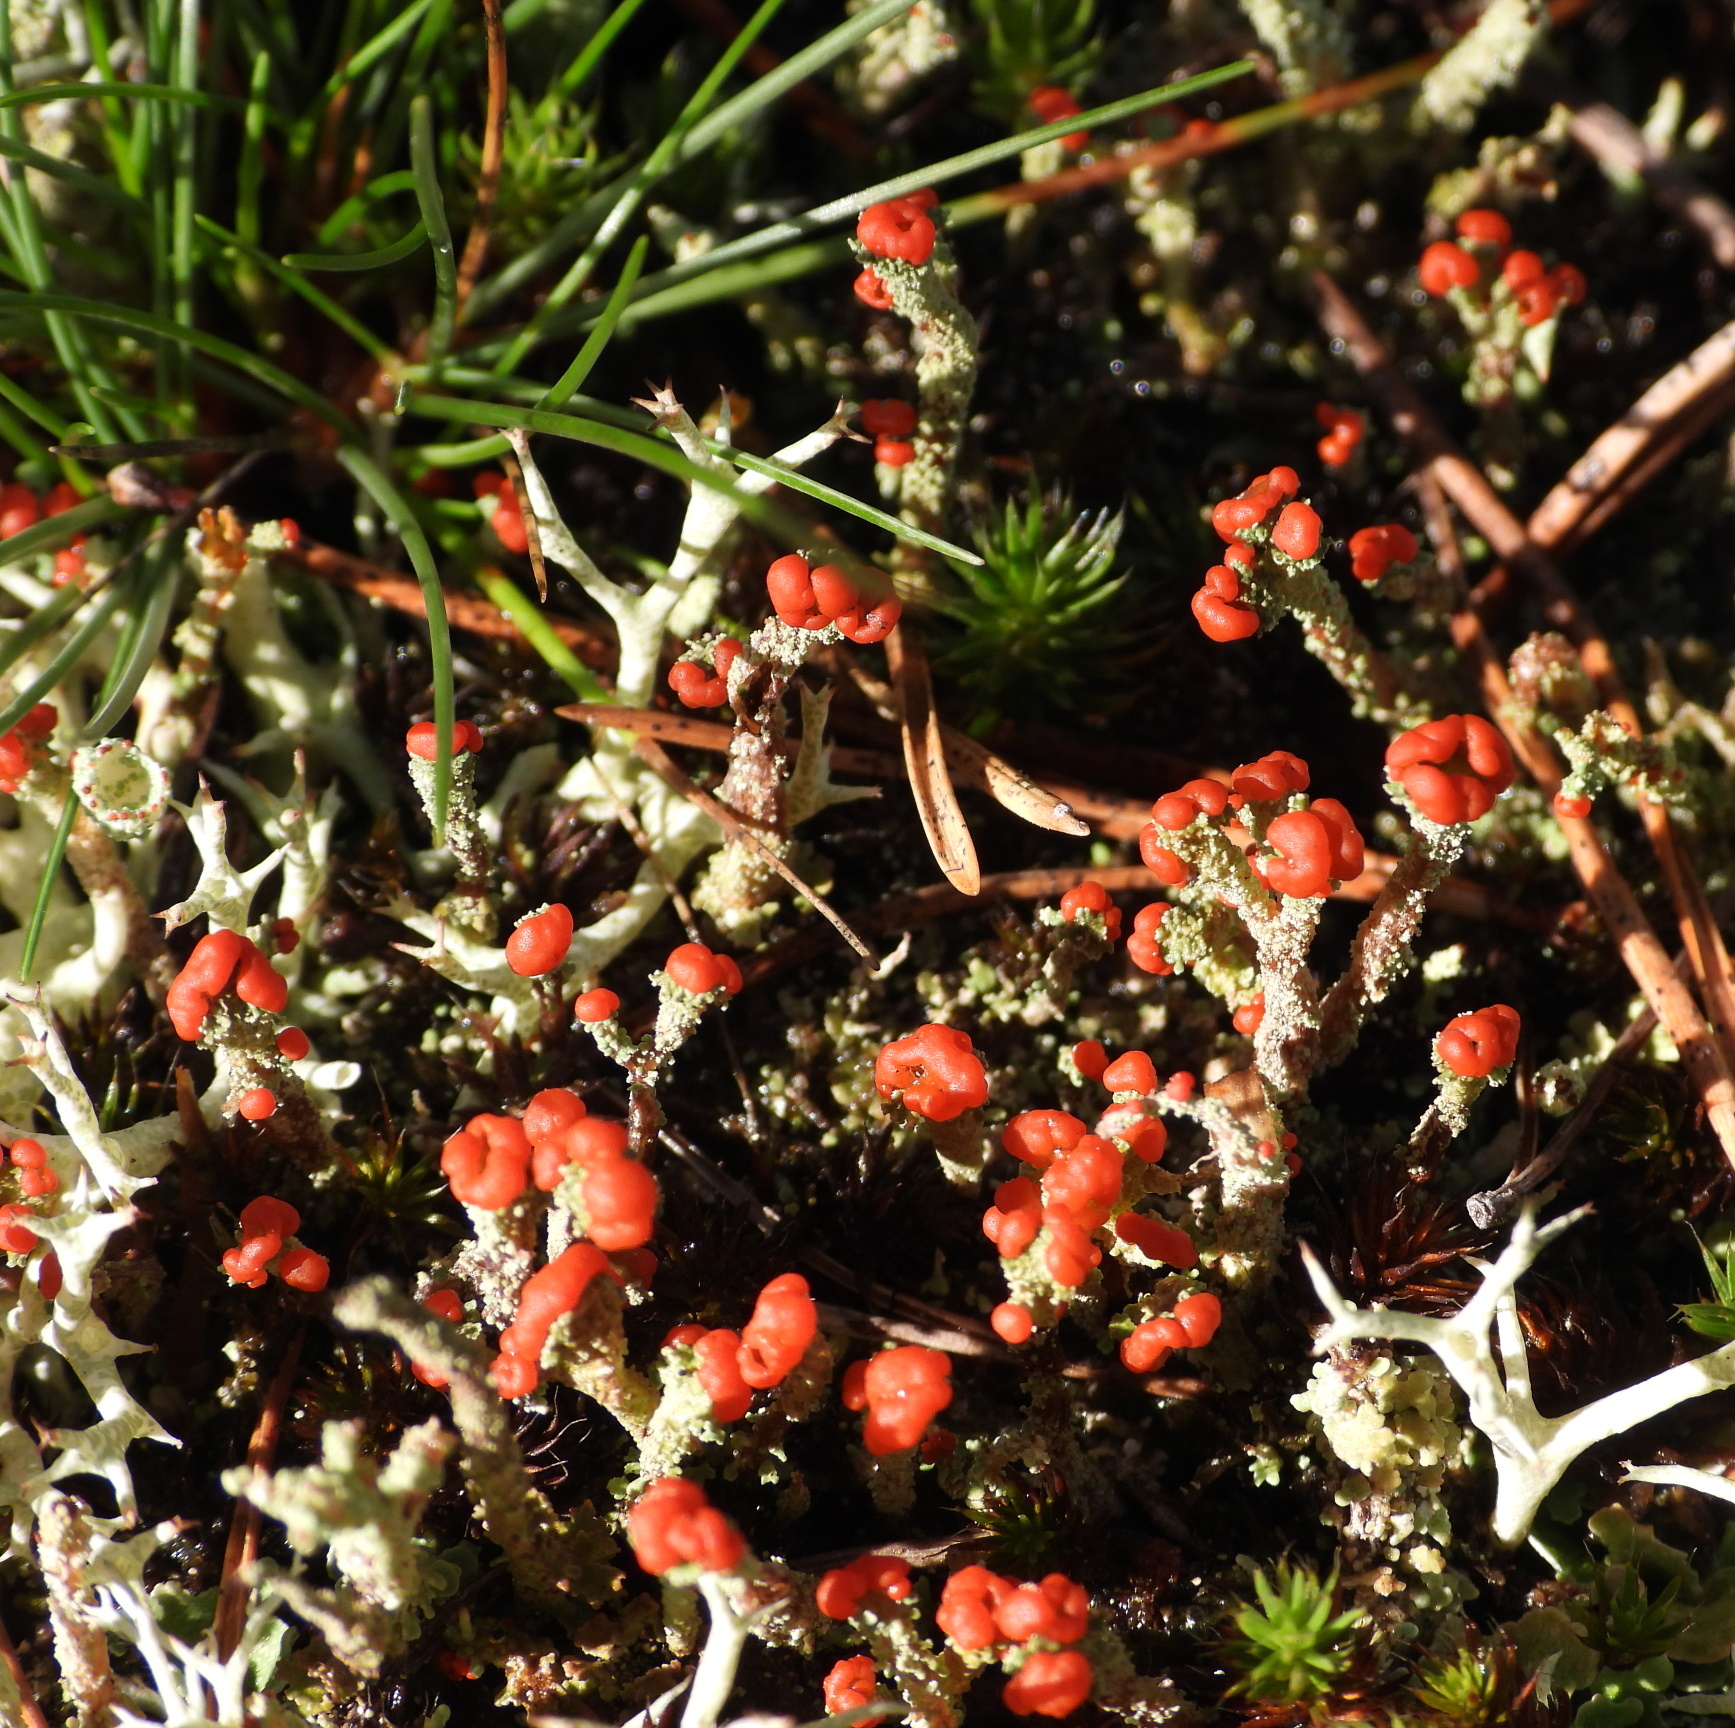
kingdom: Fungi
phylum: Ascomycota
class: Lecanoromycetes
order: Lecanorales
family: Cladoniaceae
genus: Cladonia
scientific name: Cladonia floerkeana
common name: Gritty british soldiers lichen
